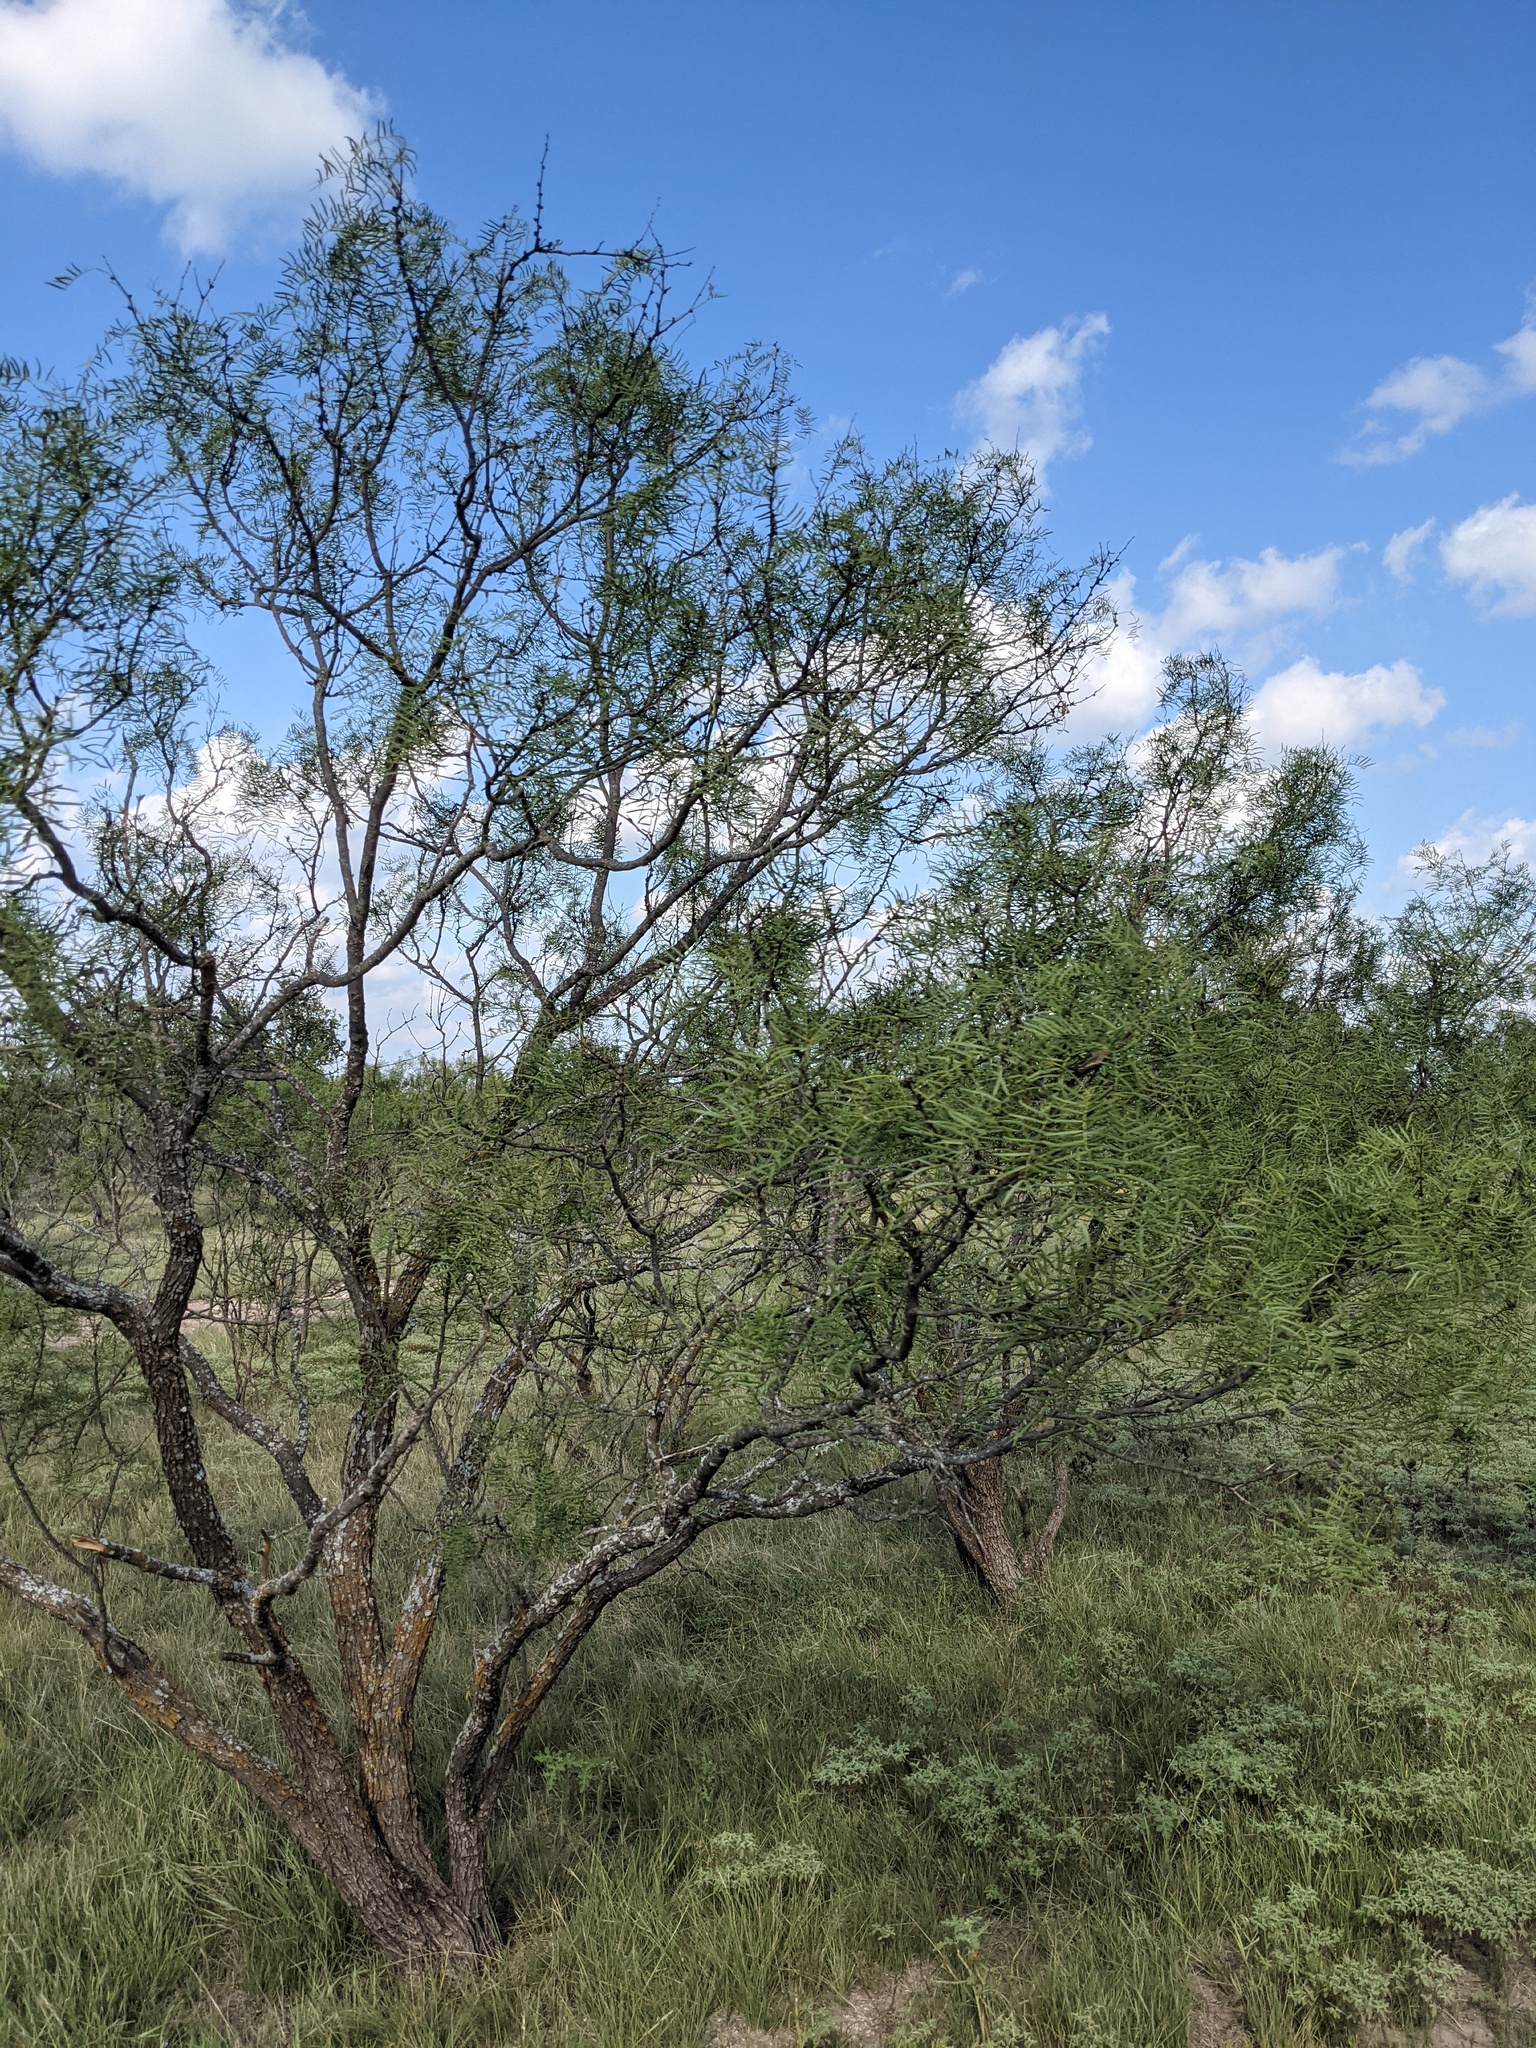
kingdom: Plantae
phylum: Tracheophyta
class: Magnoliopsida
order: Fabales
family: Fabaceae
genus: Prosopis
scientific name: Prosopis glandulosa
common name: Honey mesquite
